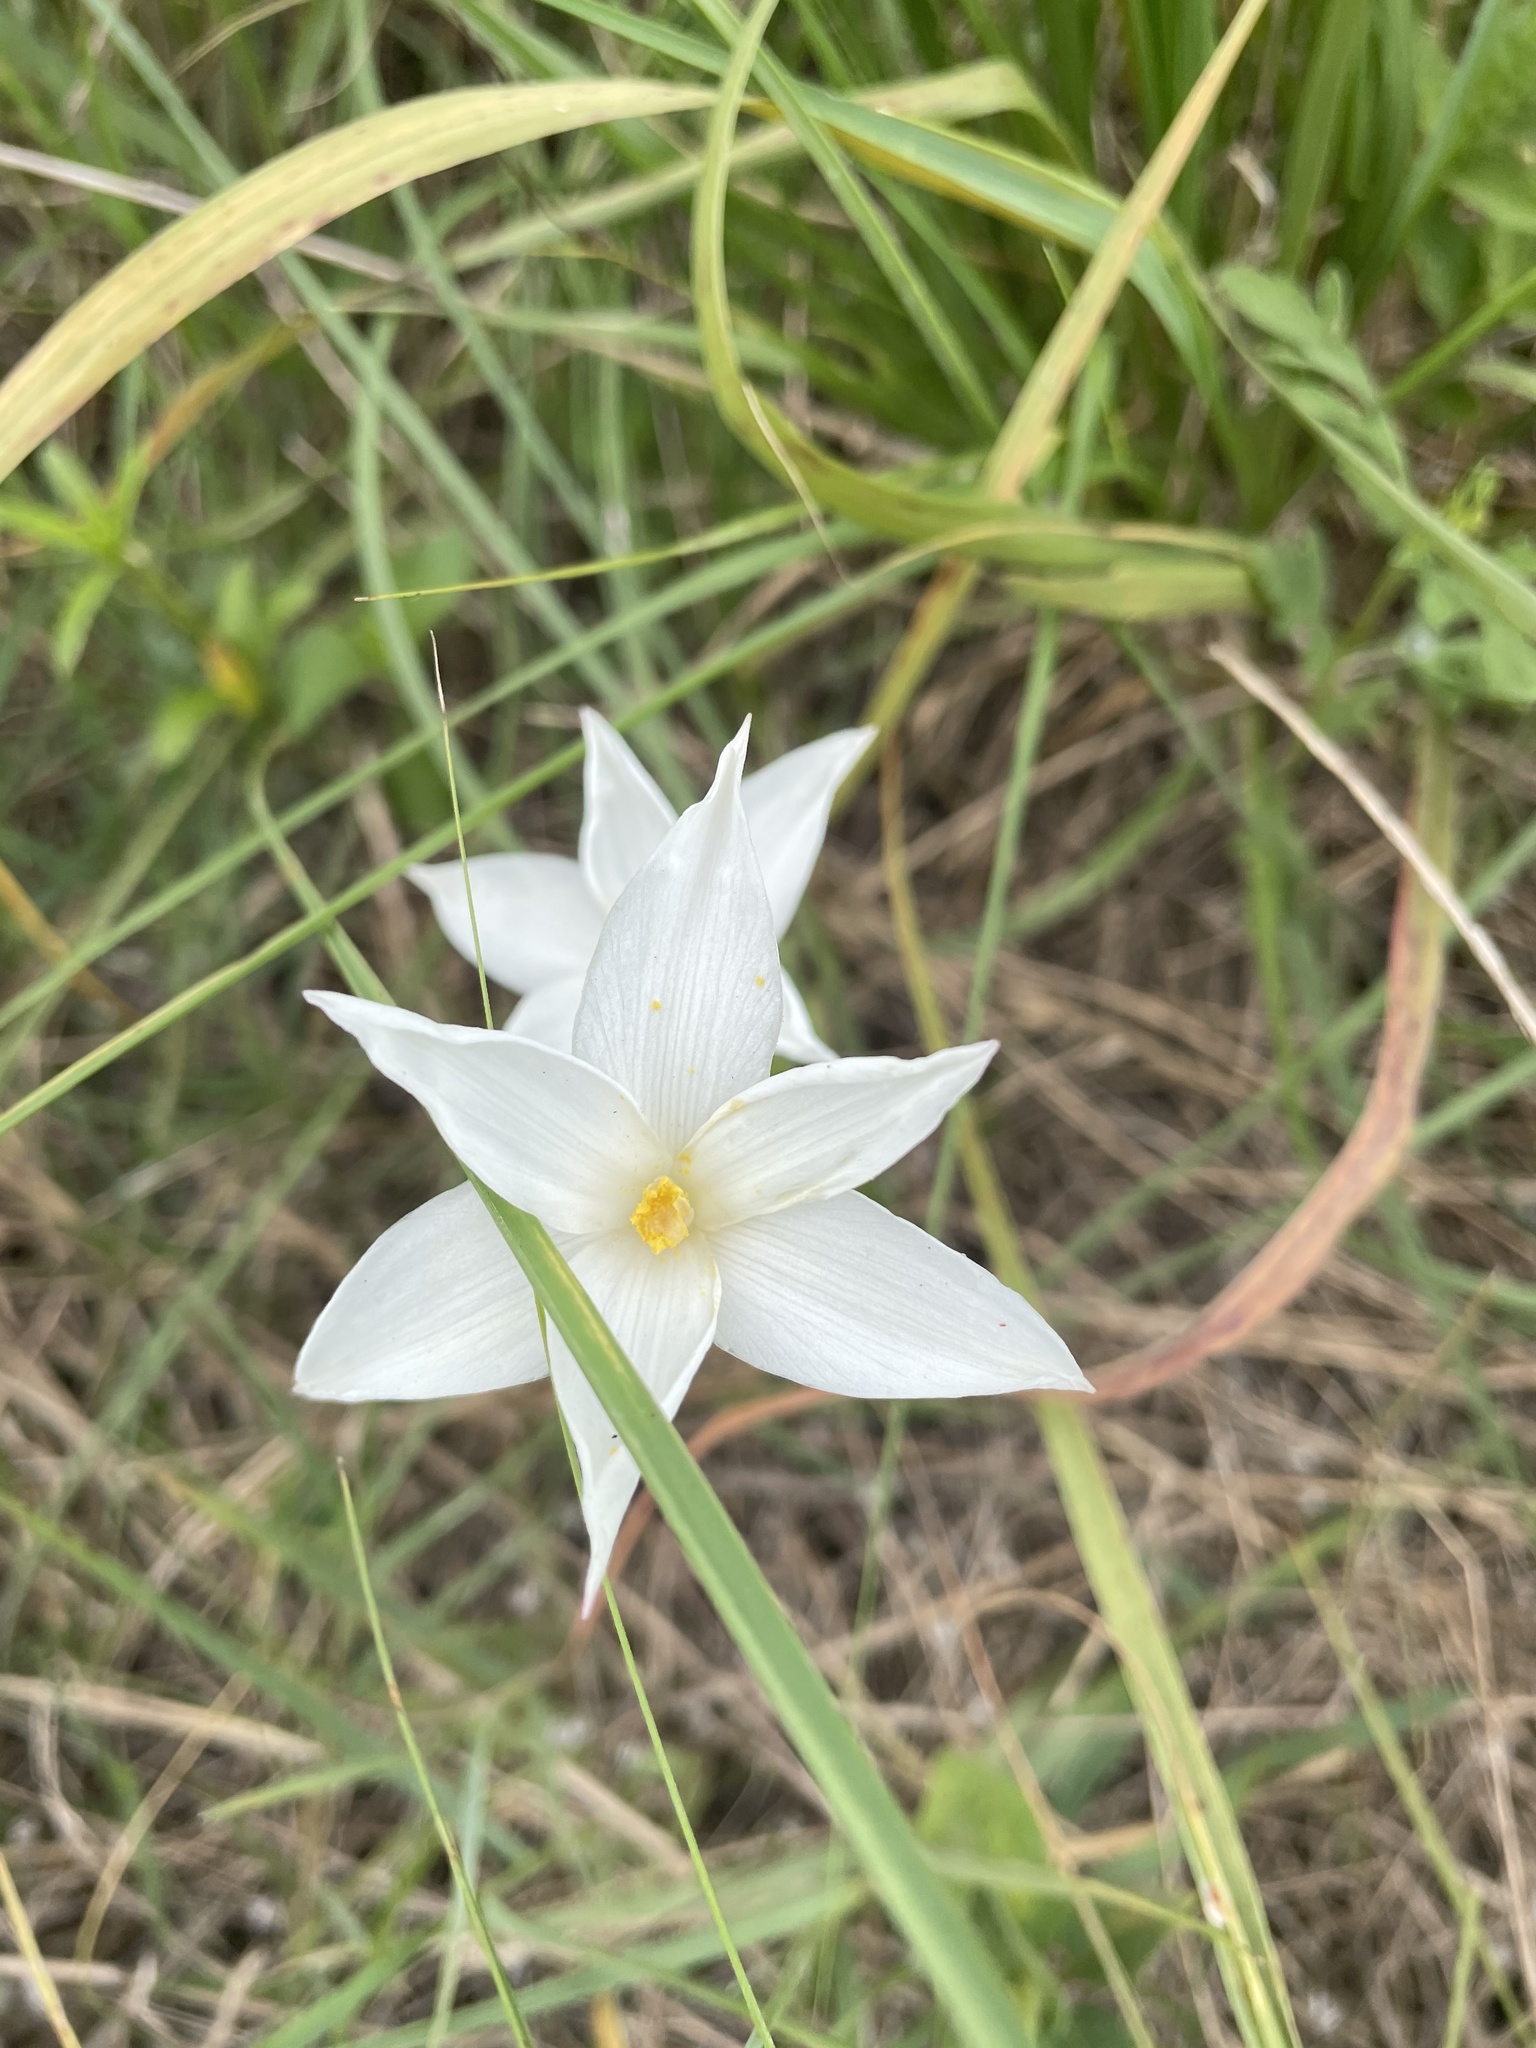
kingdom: Plantae
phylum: Tracheophyta
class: Liliopsida
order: Asparagales
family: Amaryllidaceae
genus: Zephyranthes
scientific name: Zephyranthes chlorosolen
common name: Evening rain-lily
